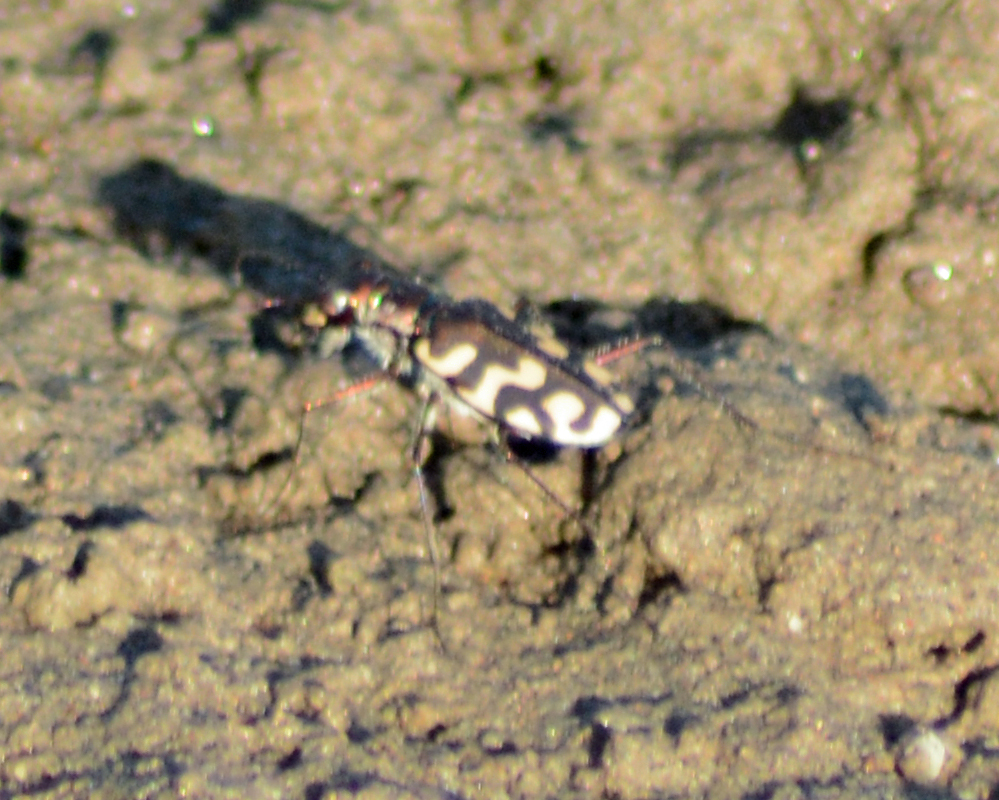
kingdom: Animalia
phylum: Arthropoda
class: Insecta
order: Coleoptera
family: Carabidae
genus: Cicindela
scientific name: Cicindela carthagena
